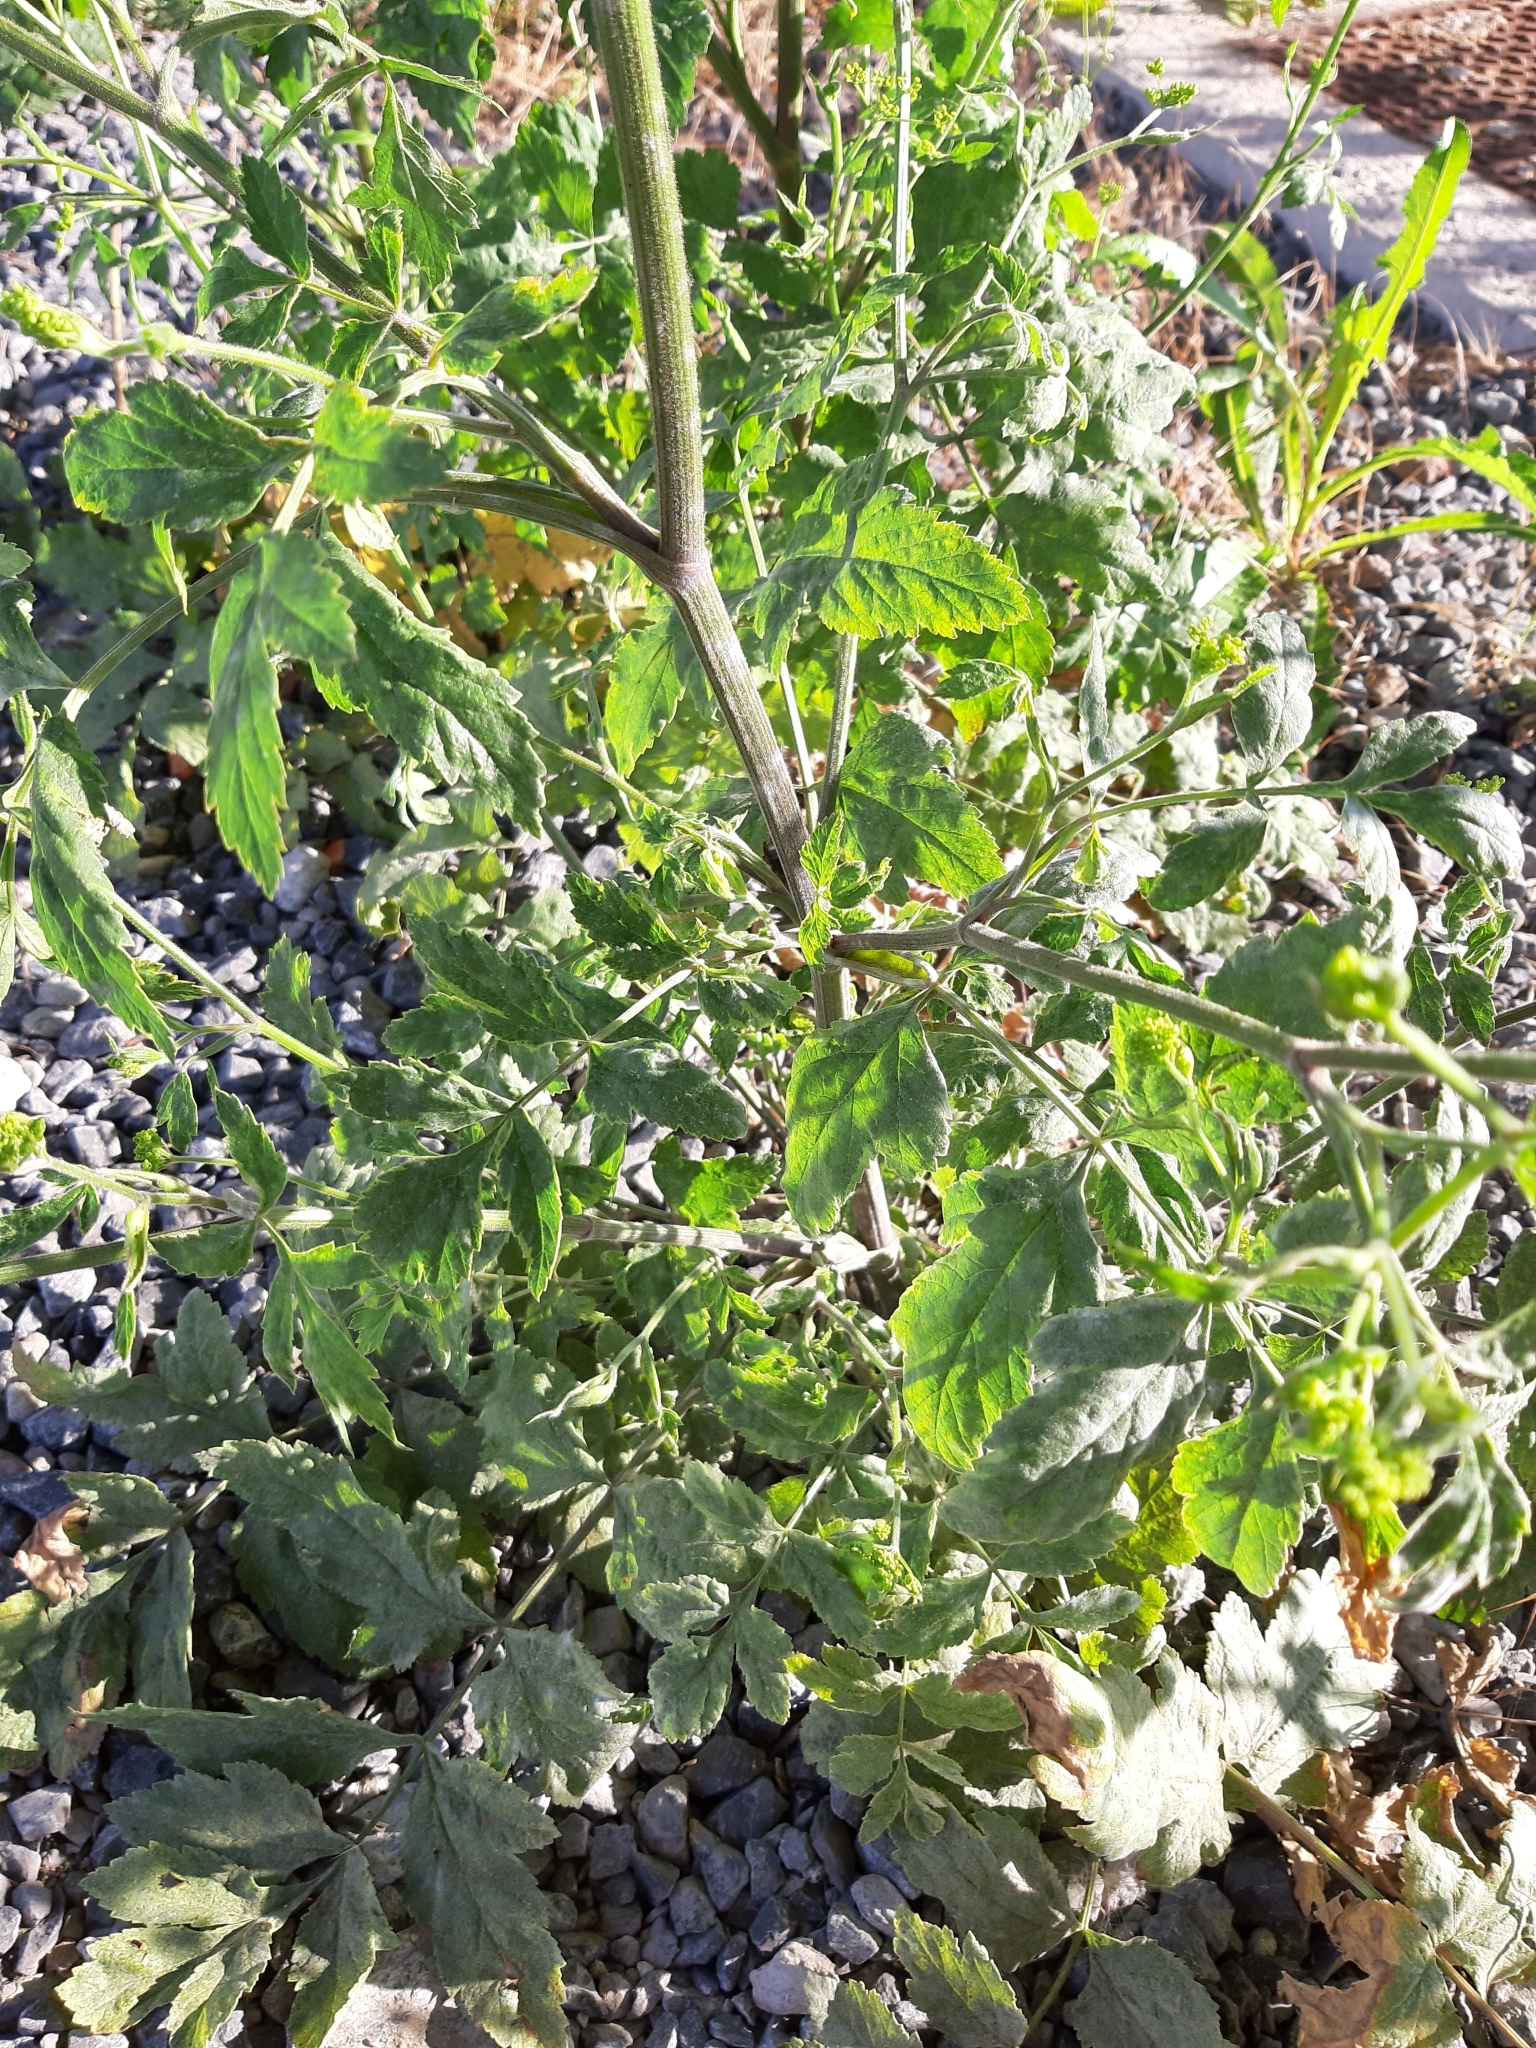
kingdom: Plantae
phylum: Tracheophyta
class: Magnoliopsida
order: Apiales
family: Apiaceae
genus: Pastinaca
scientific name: Pastinaca sativa
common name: Wild parsnip
